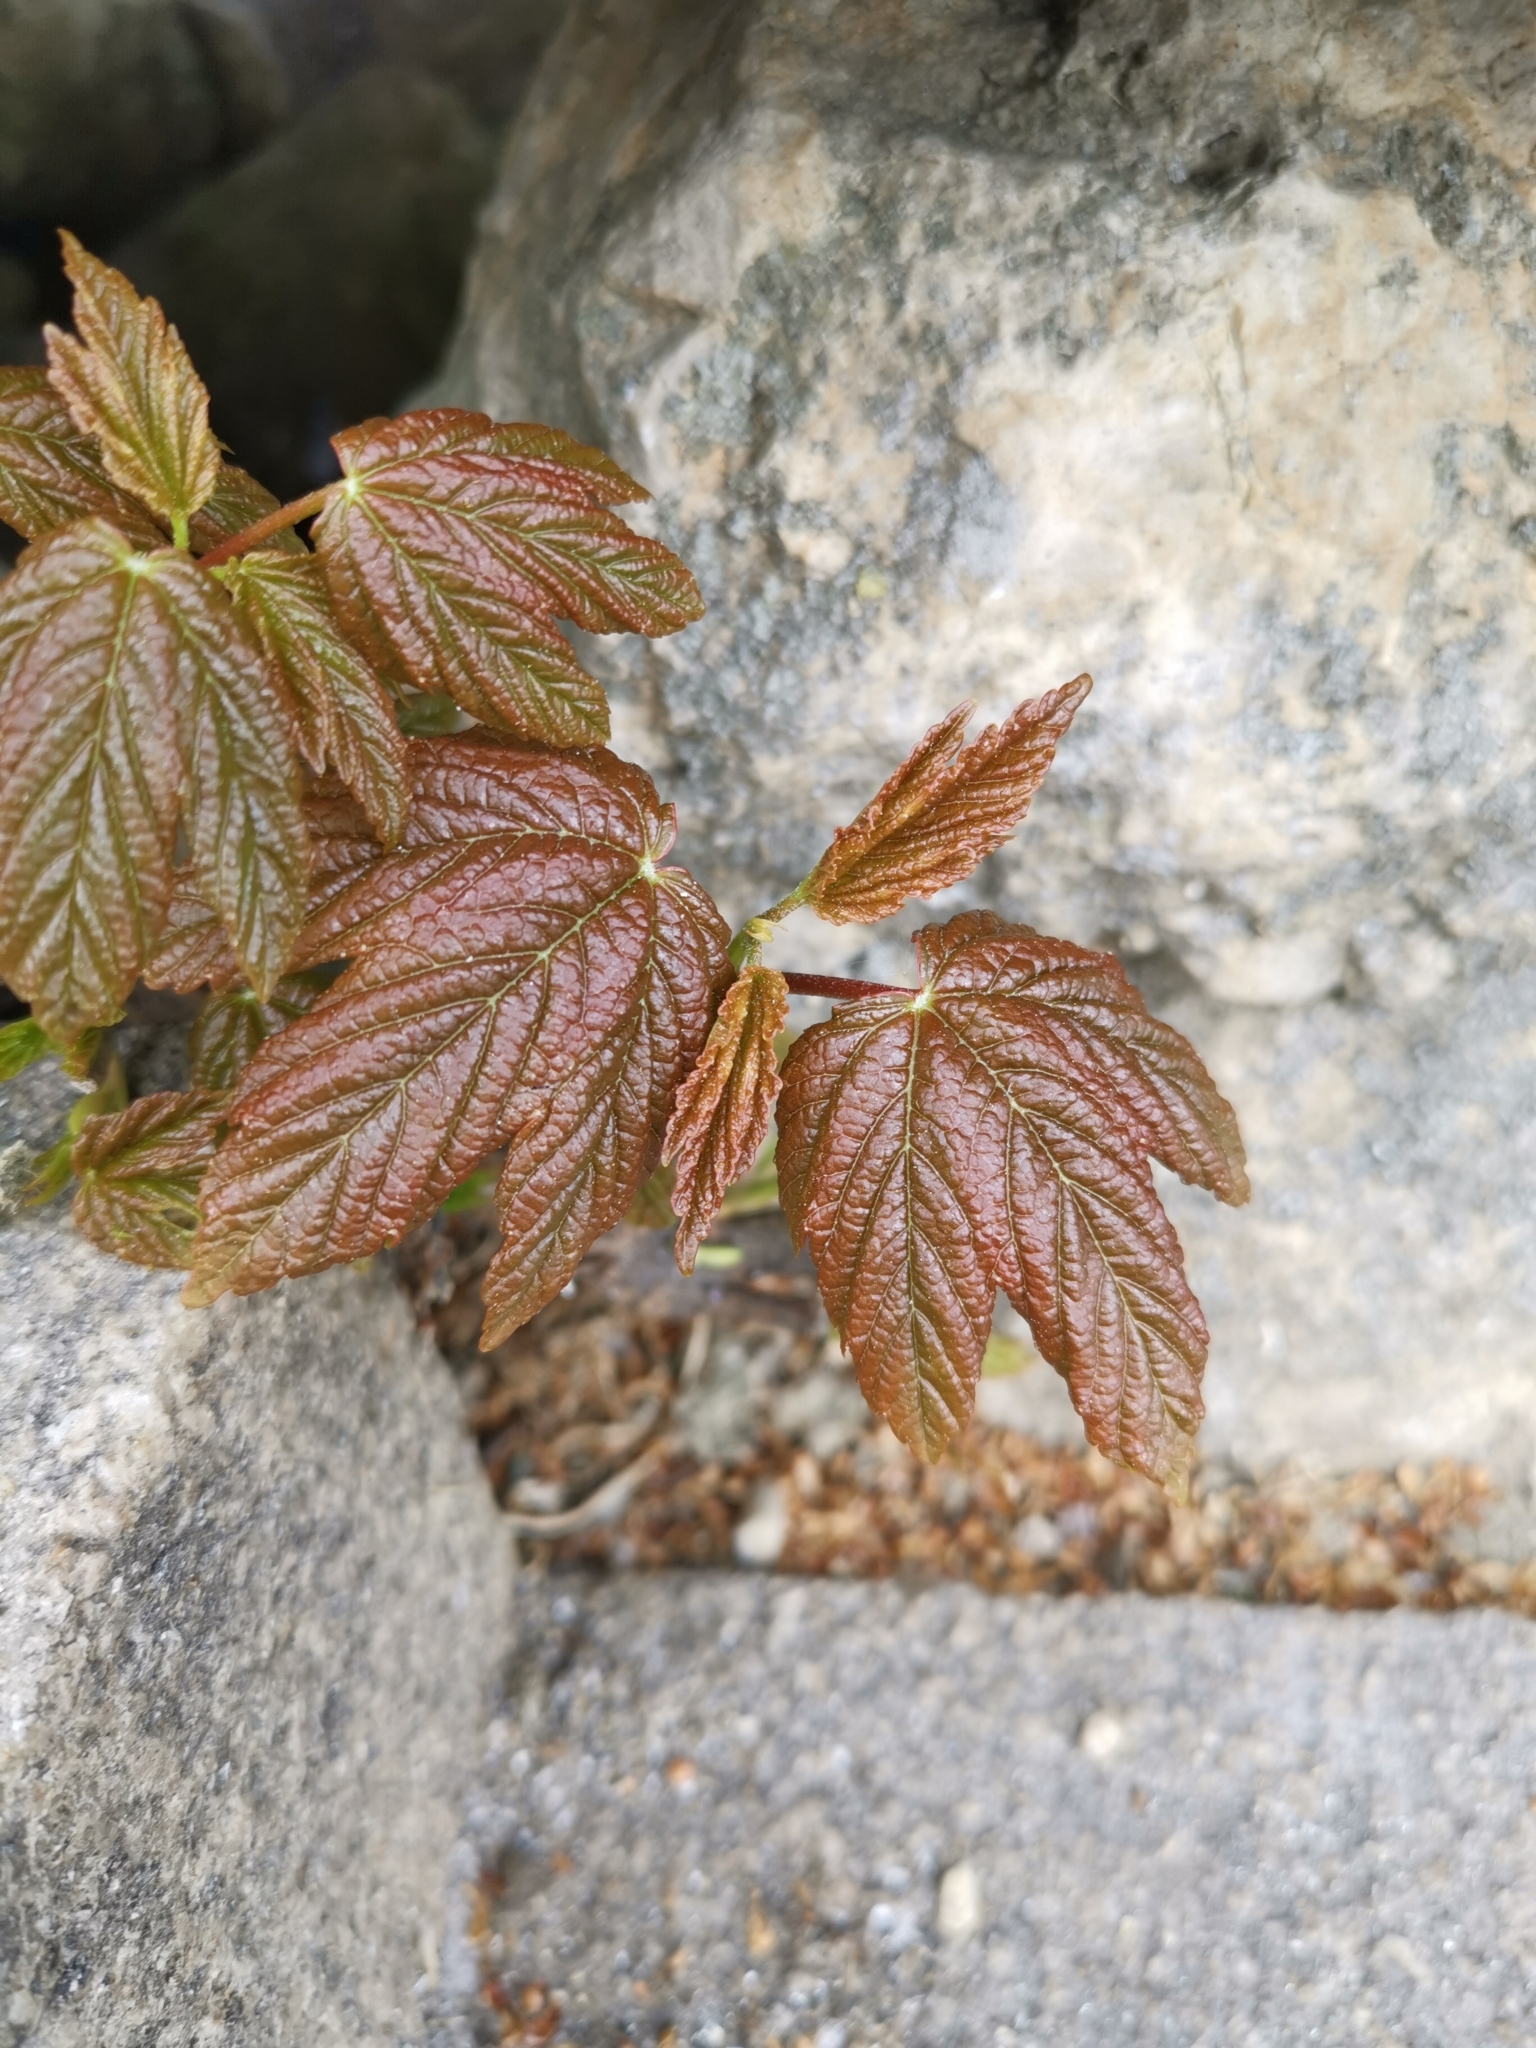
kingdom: Plantae
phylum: Tracheophyta
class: Magnoliopsida
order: Sapindales
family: Sapindaceae
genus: Acer
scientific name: Acer pseudoplatanus
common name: Sycamore
